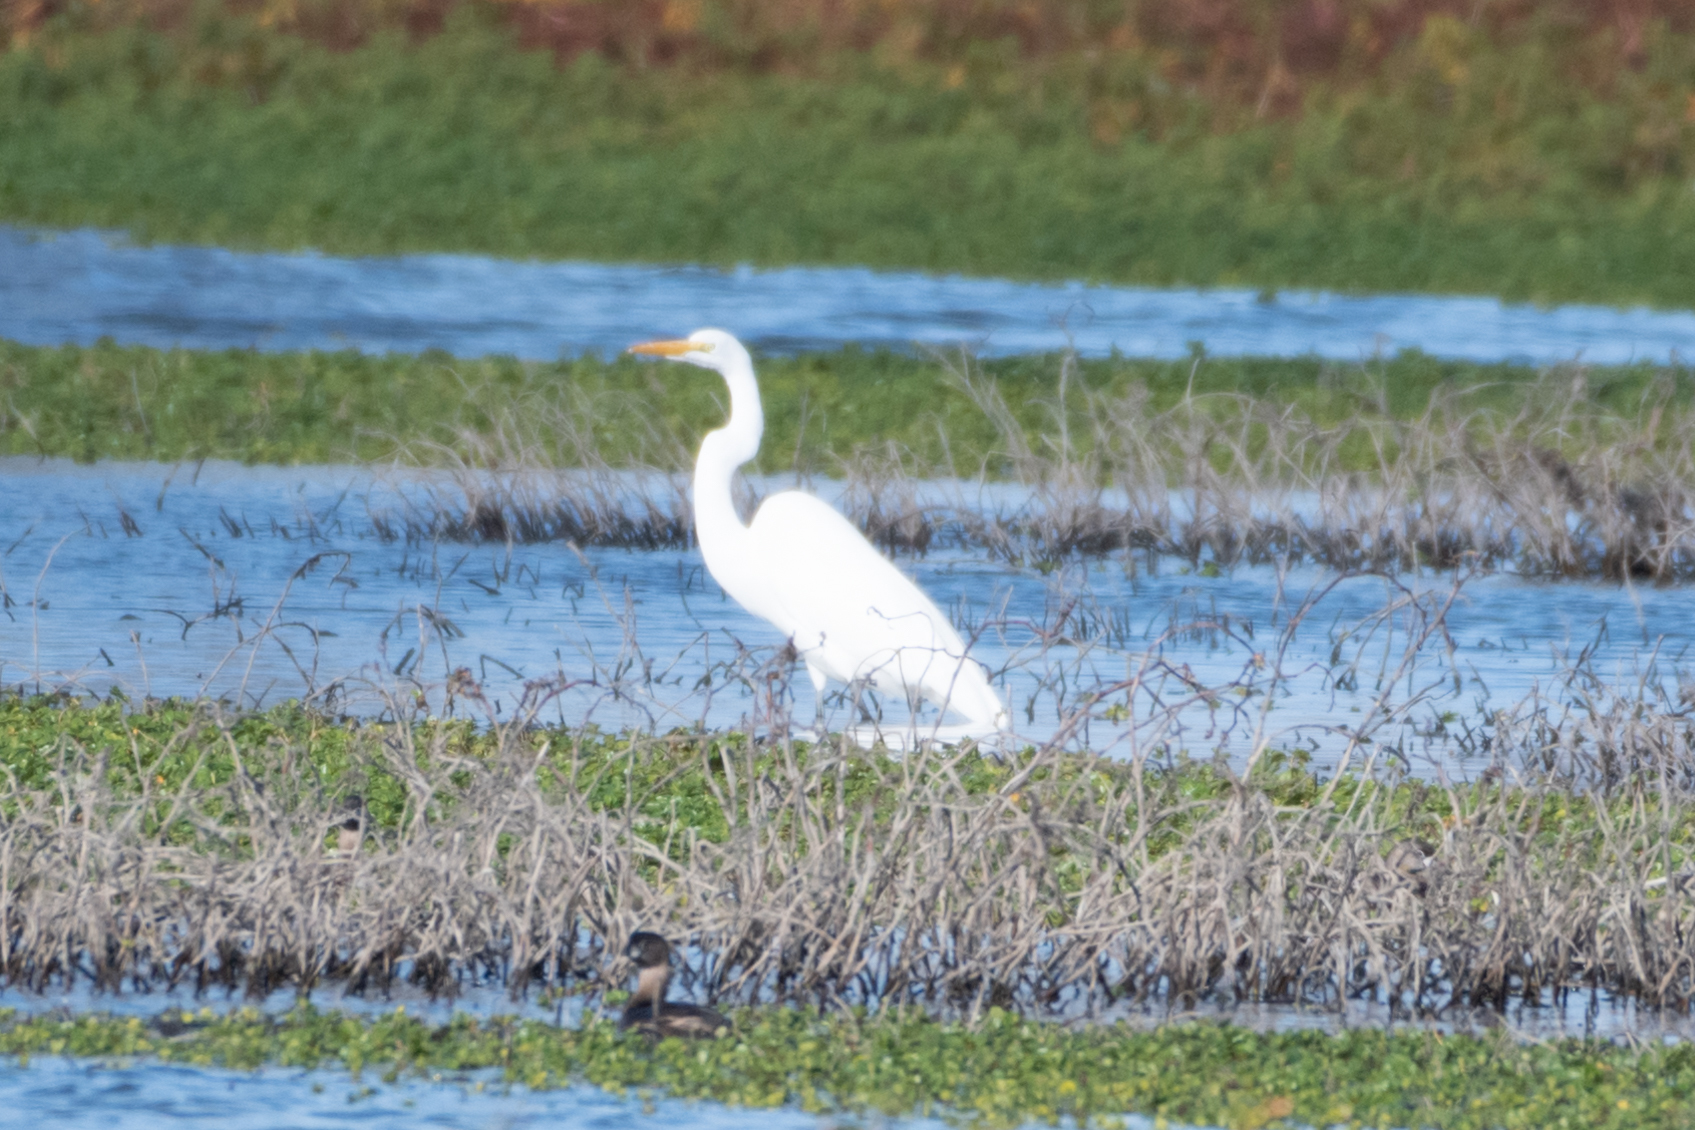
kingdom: Animalia
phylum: Chordata
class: Aves
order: Pelecaniformes
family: Ardeidae
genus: Ardea
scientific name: Ardea alba
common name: Great egret
